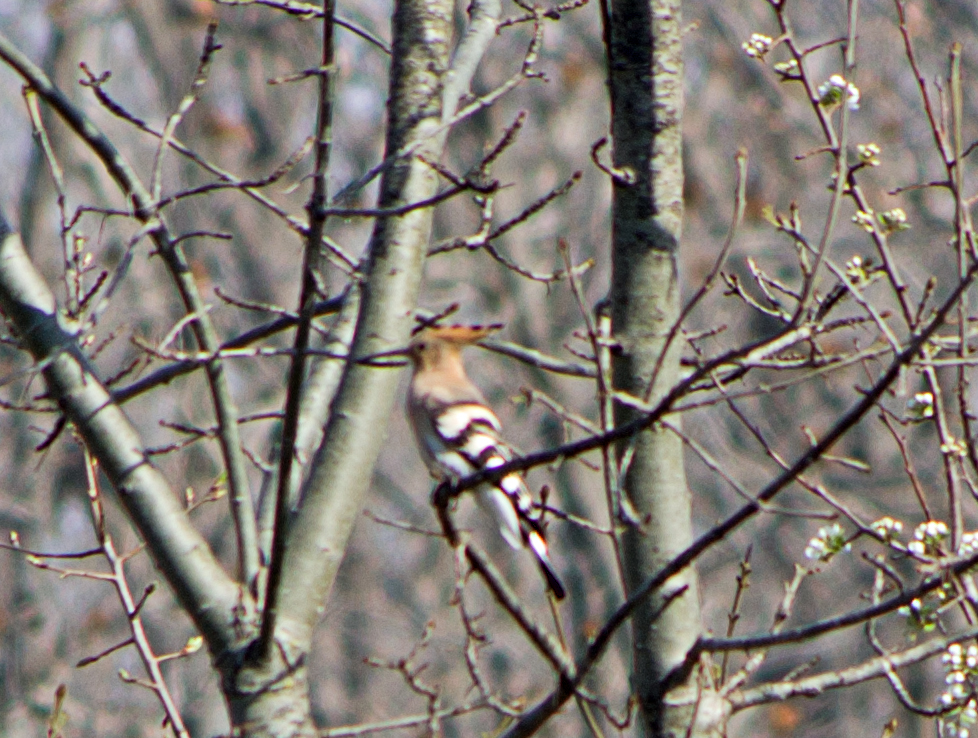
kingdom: Animalia
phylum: Chordata
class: Aves
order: Bucerotiformes
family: Upupidae
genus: Upupa
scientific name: Upupa epops
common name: Eurasian hoopoe
